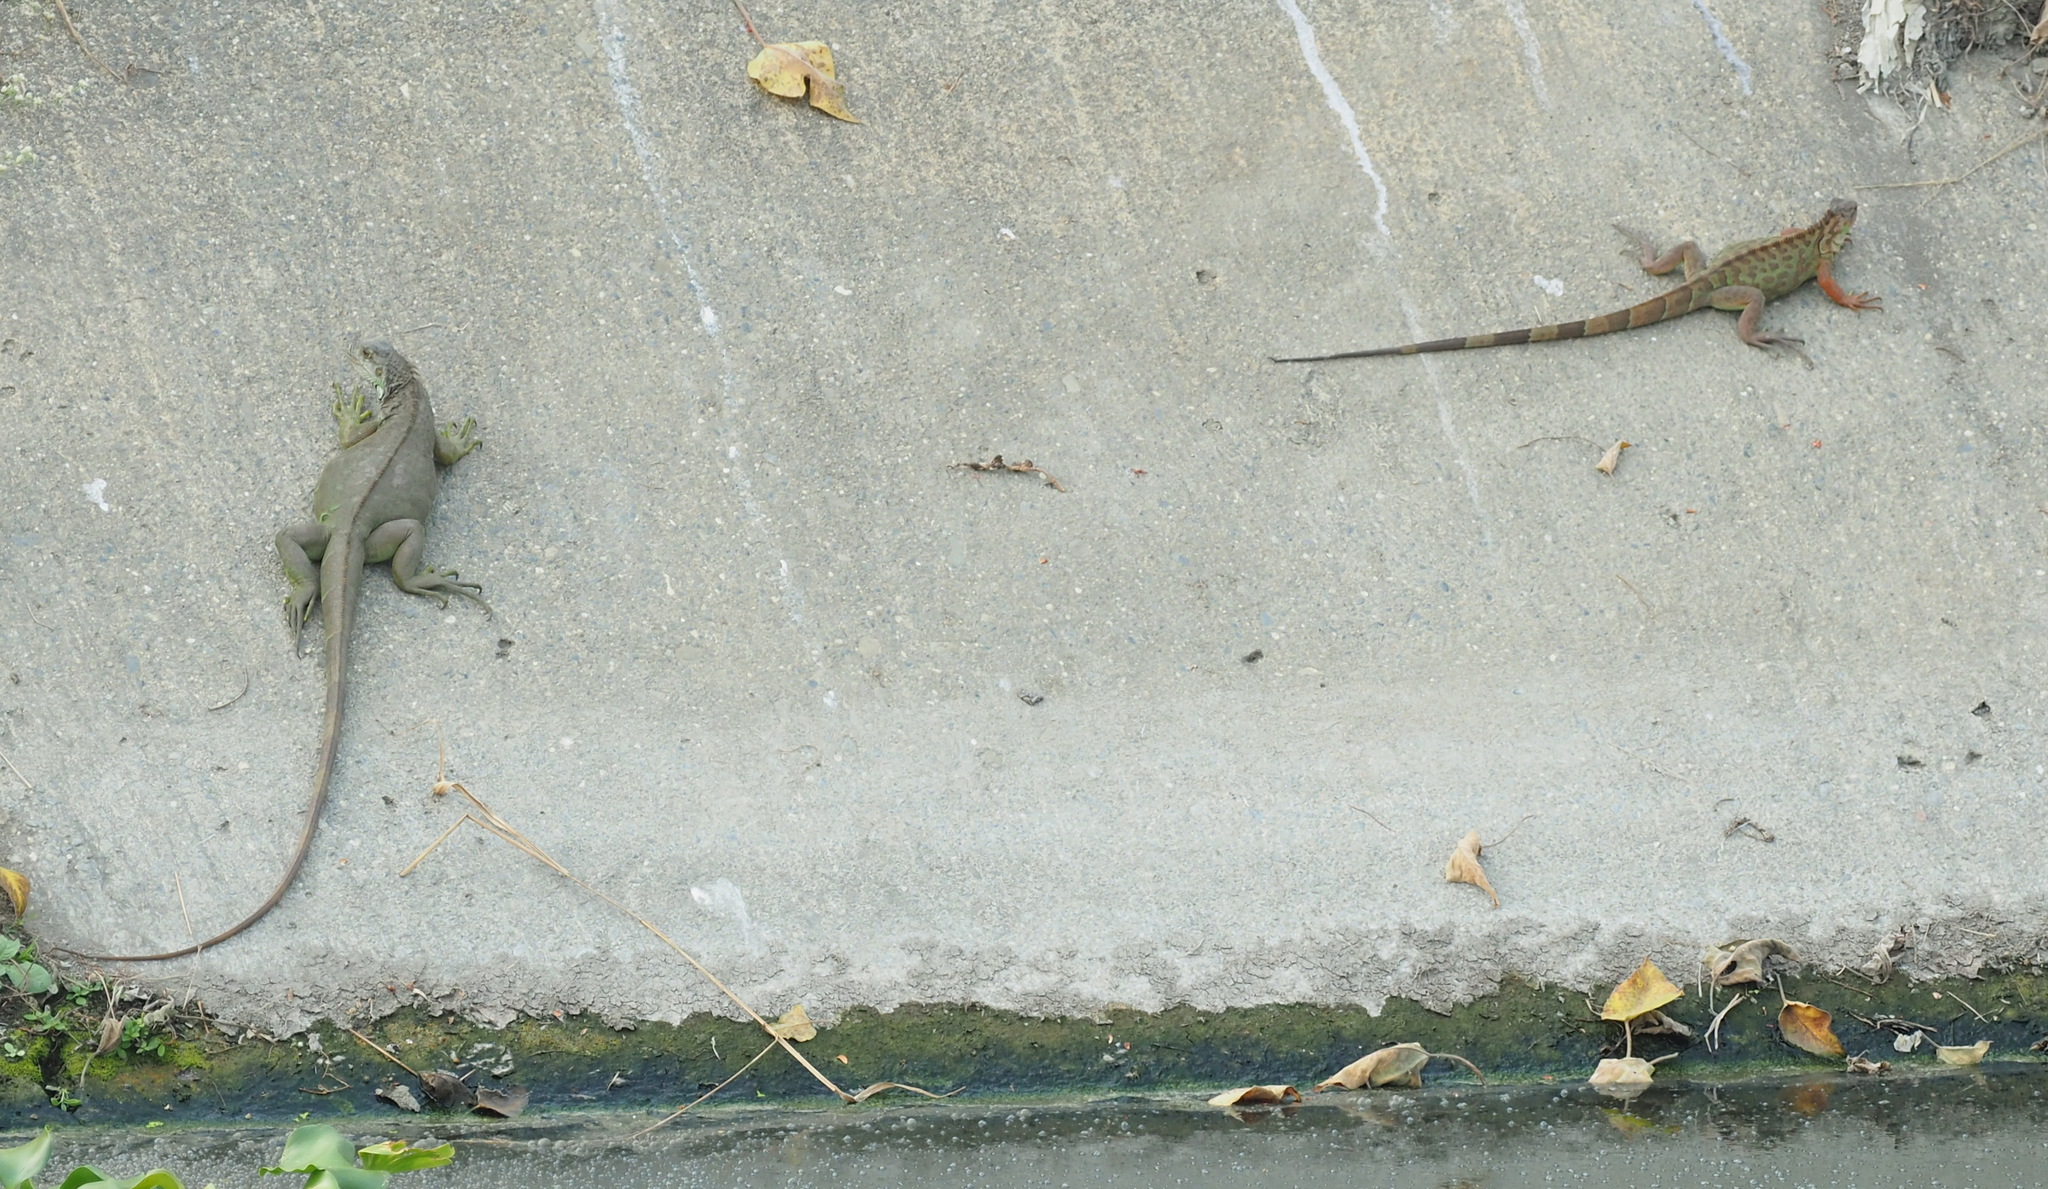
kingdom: Animalia
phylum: Chordata
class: Squamata
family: Iguanidae
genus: Iguana
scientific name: Iguana iguana
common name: Green iguana
